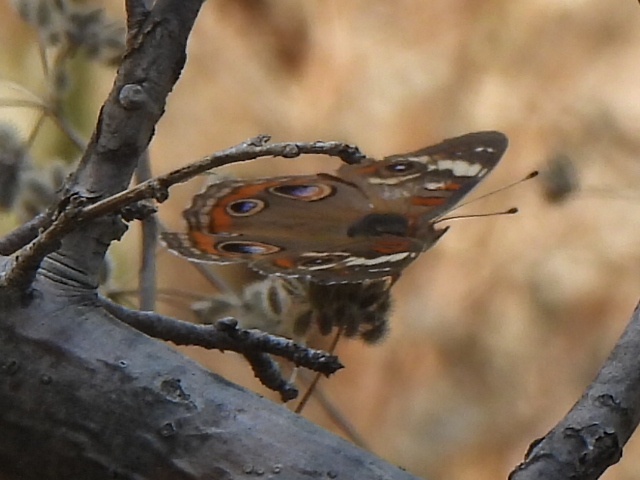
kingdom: Animalia
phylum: Arthropoda
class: Insecta
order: Lepidoptera
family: Nymphalidae
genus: Junonia
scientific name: Junonia coenia
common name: Common buckeye
